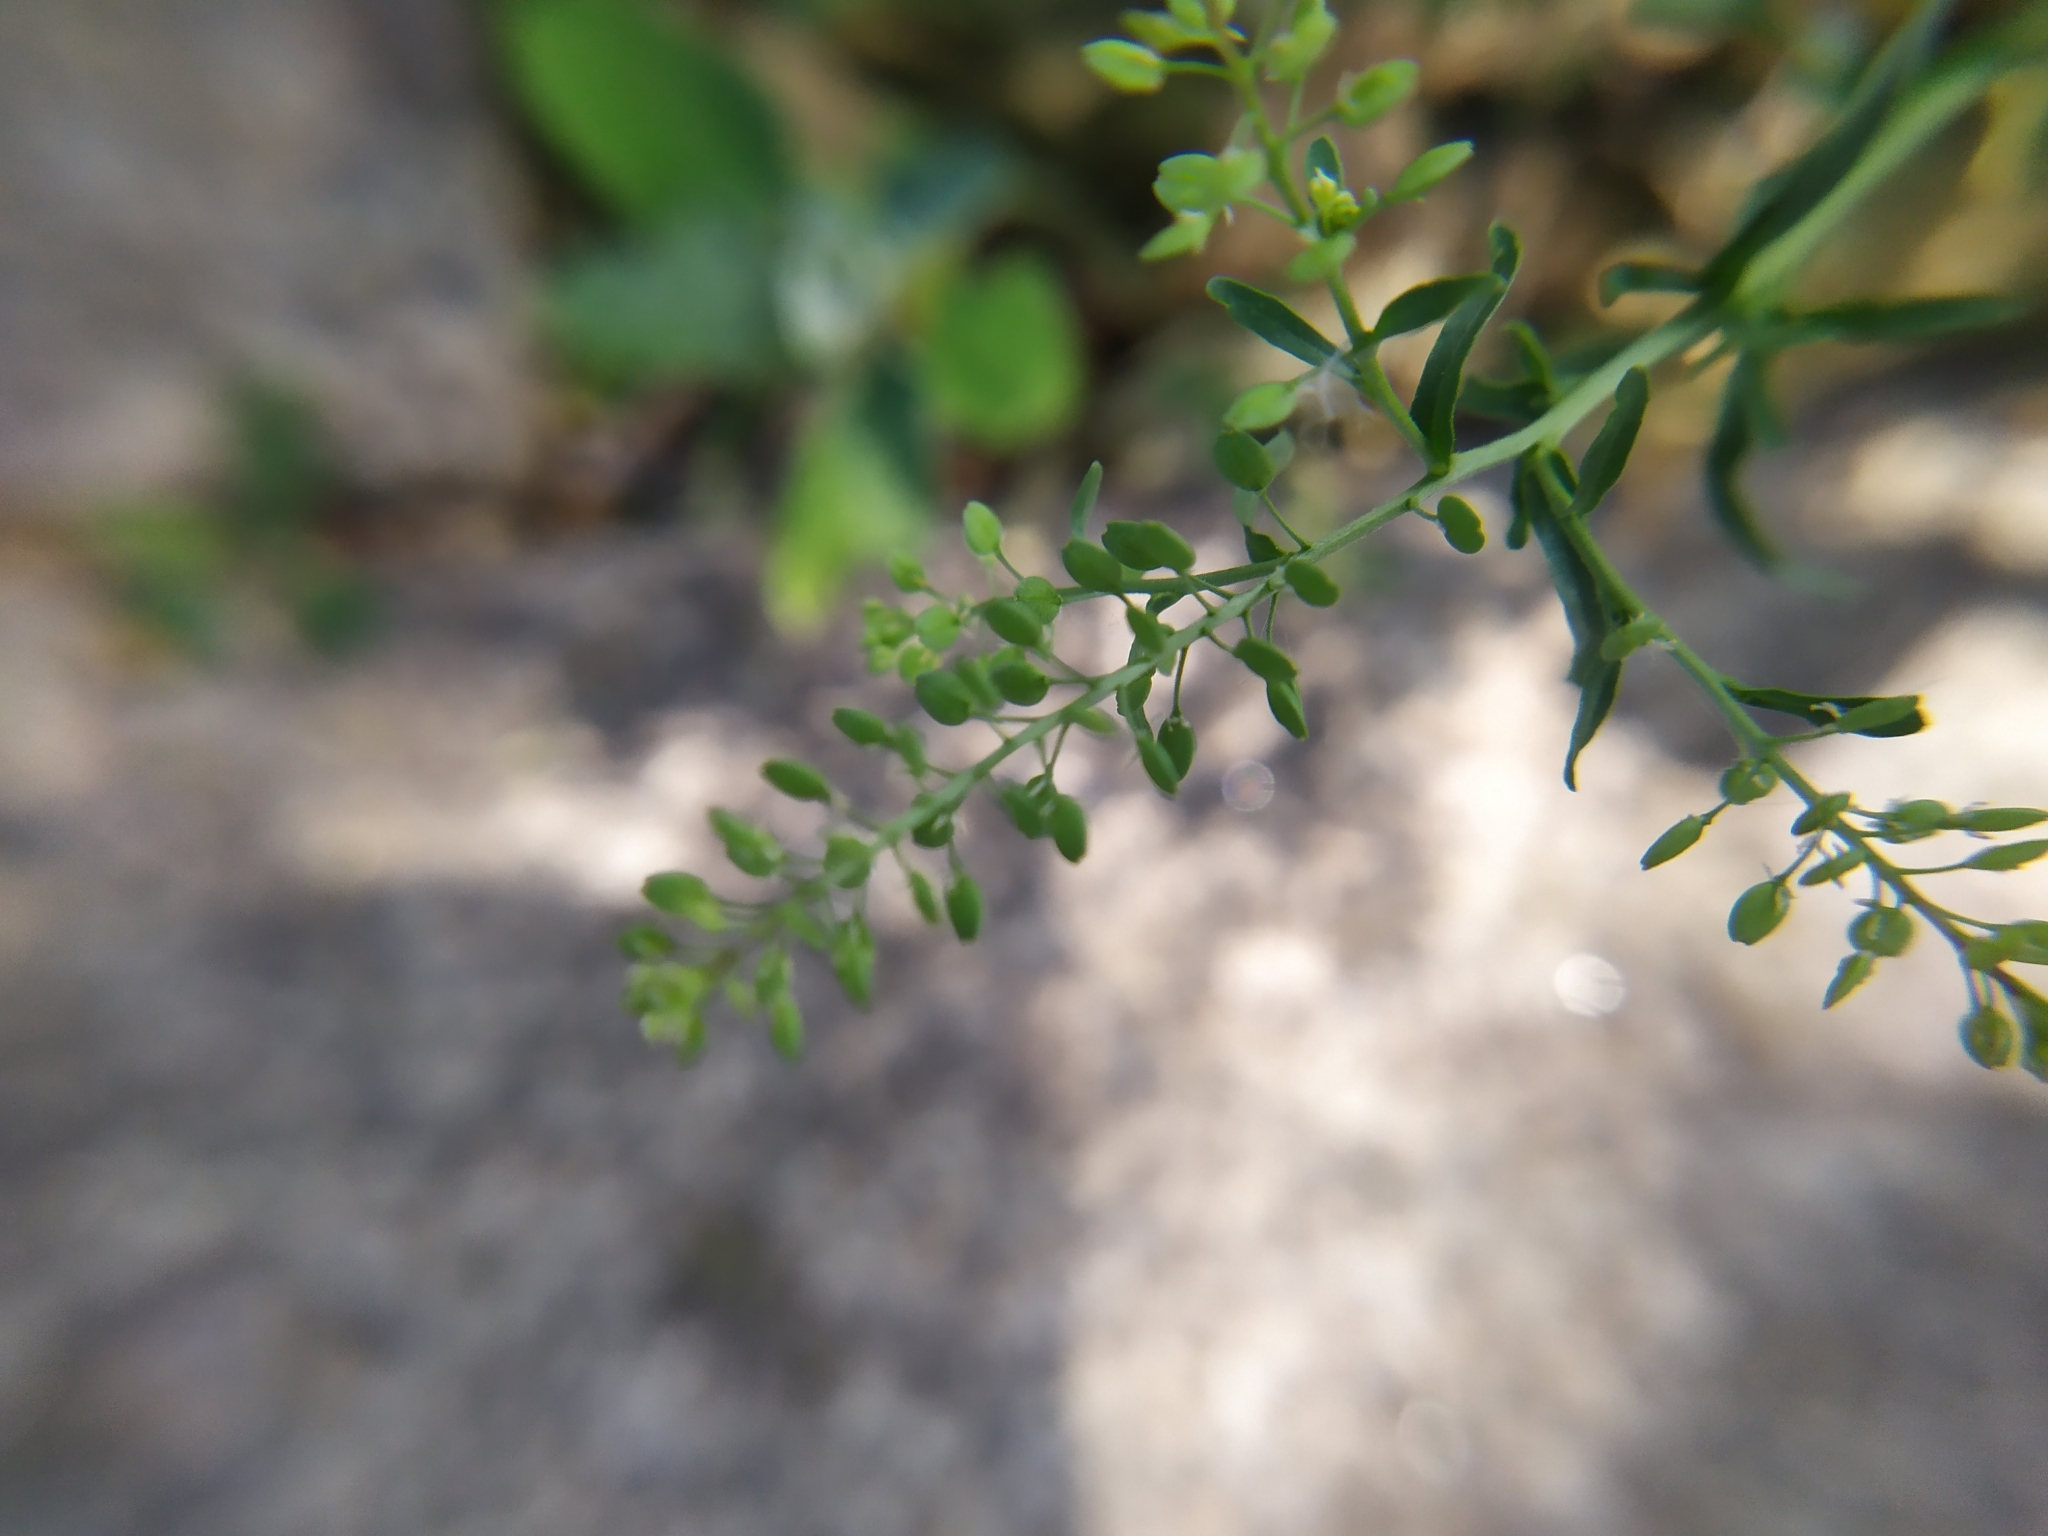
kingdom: Plantae
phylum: Tracheophyta
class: Magnoliopsida
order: Brassicales
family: Brassicaceae
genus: Lepidium
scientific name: Lepidium ruderale
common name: Narrow-leaved pepperwort
